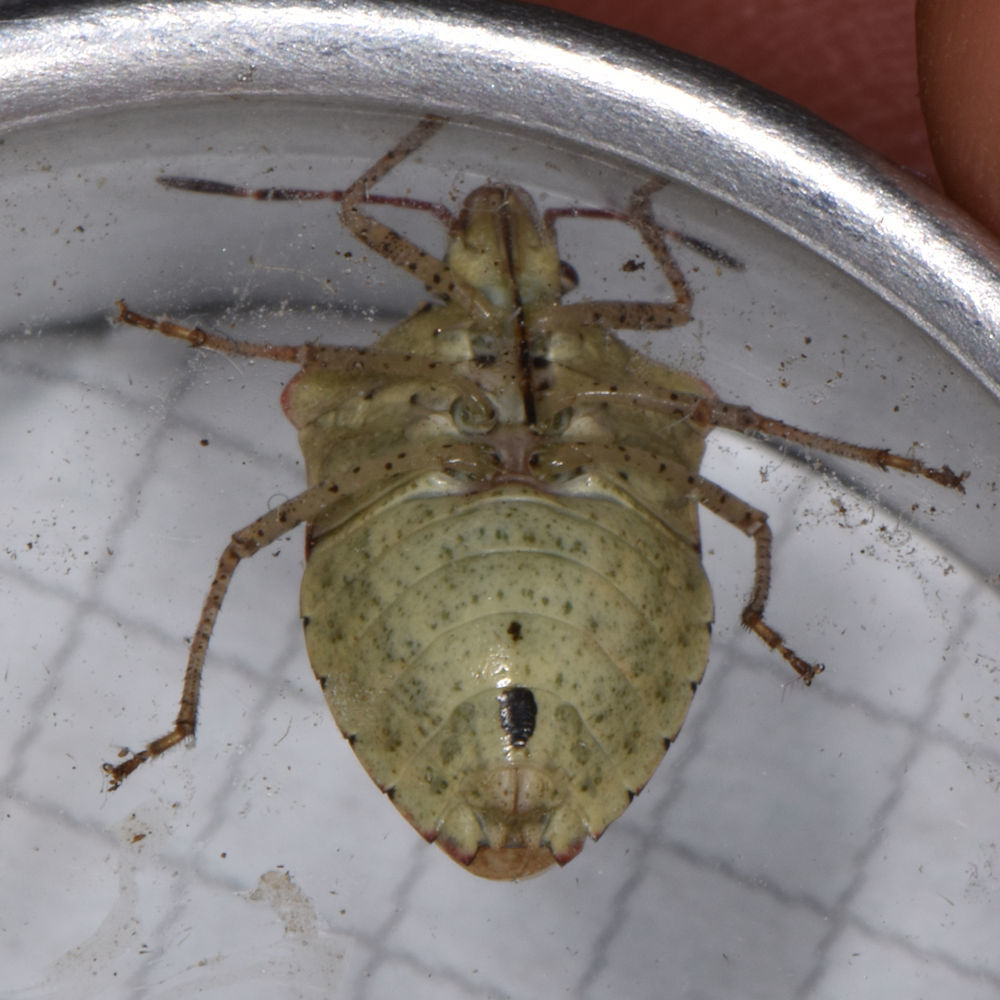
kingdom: Animalia
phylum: Arthropoda
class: Insecta
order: Hemiptera
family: Pentatomidae
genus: Euschistus
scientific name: Euschistus tristigmus
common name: Dusky stink bug
